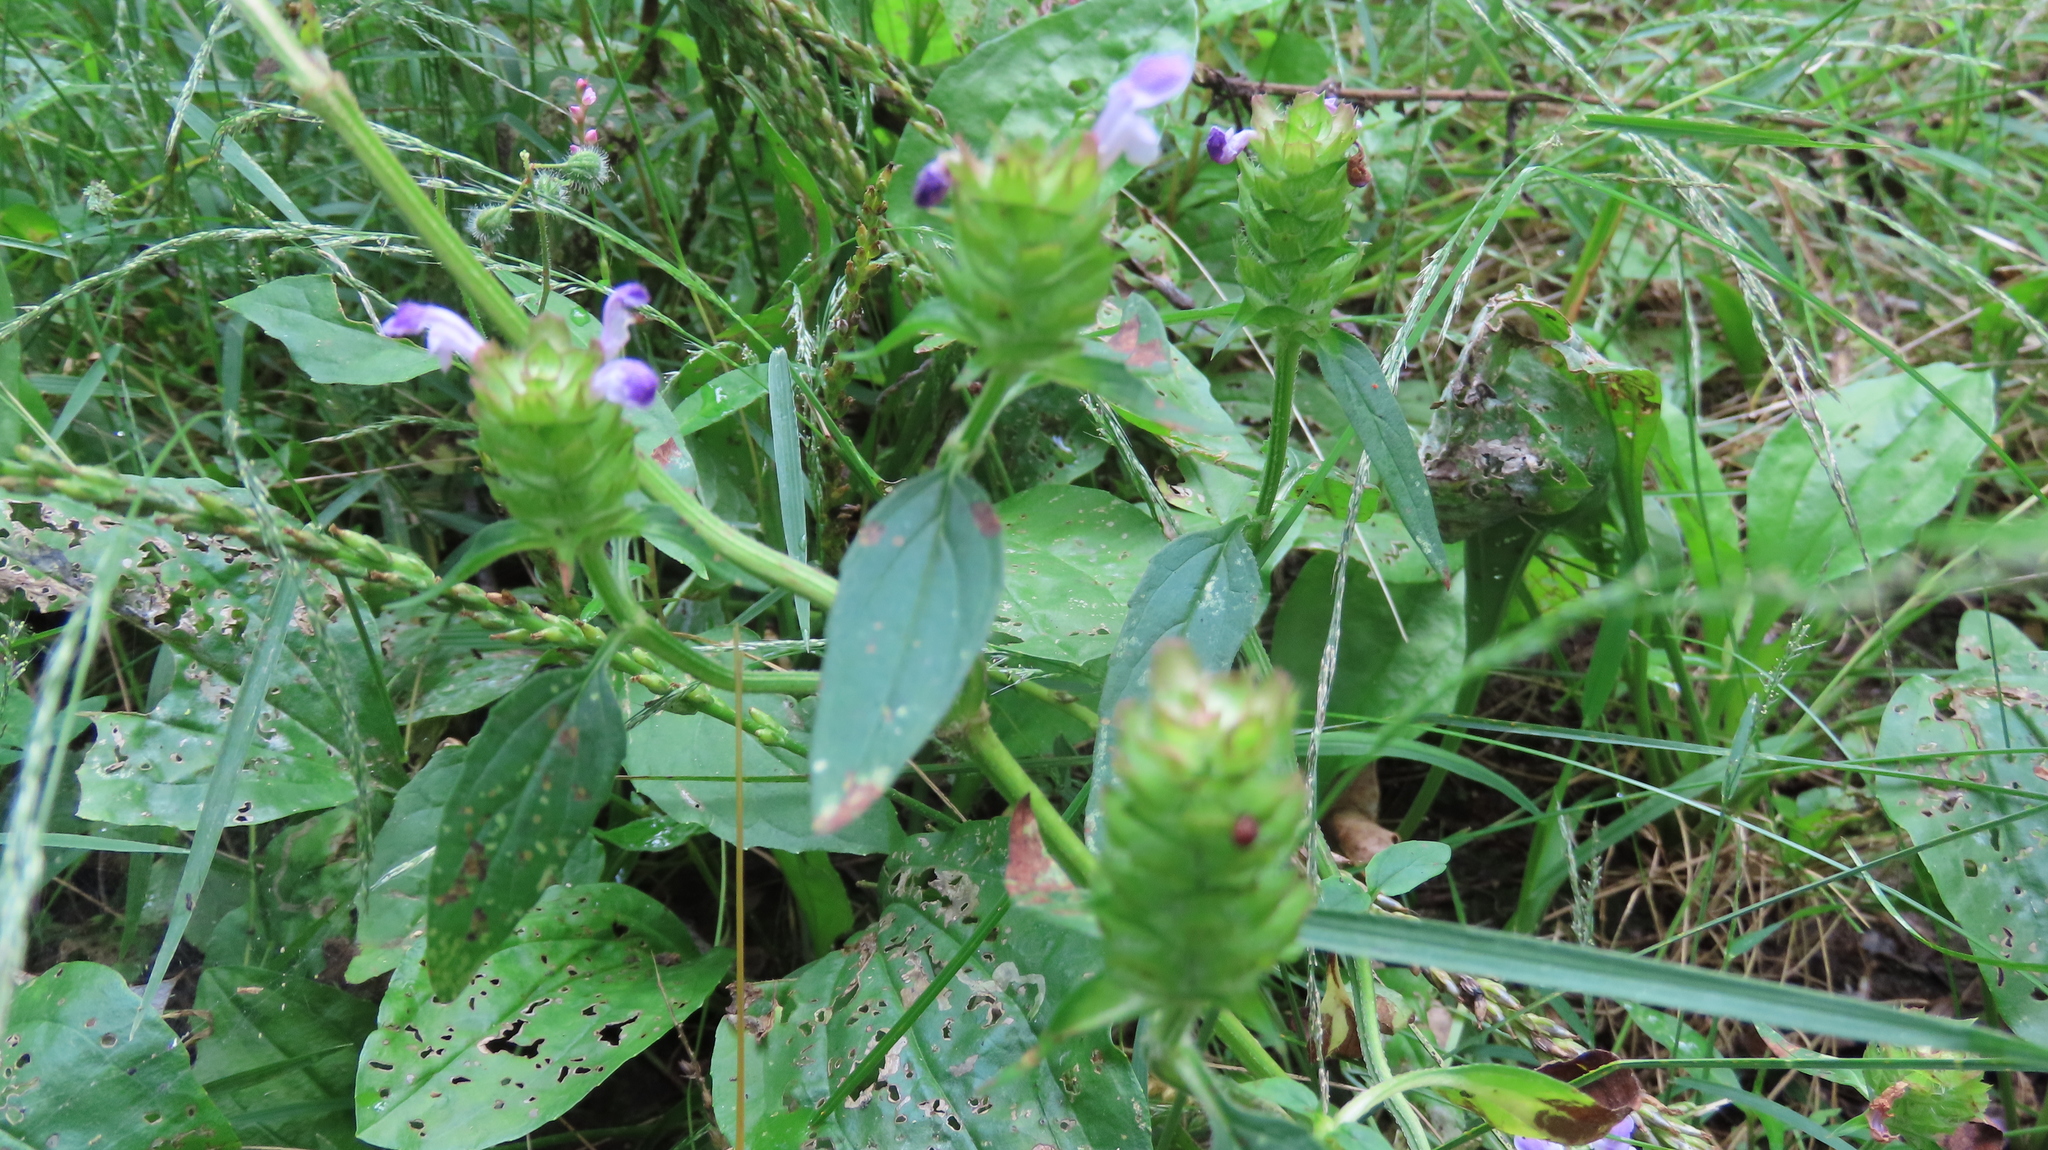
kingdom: Plantae
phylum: Tracheophyta
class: Magnoliopsida
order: Lamiales
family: Lamiaceae
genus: Prunella
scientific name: Prunella vulgaris
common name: Heal-all
